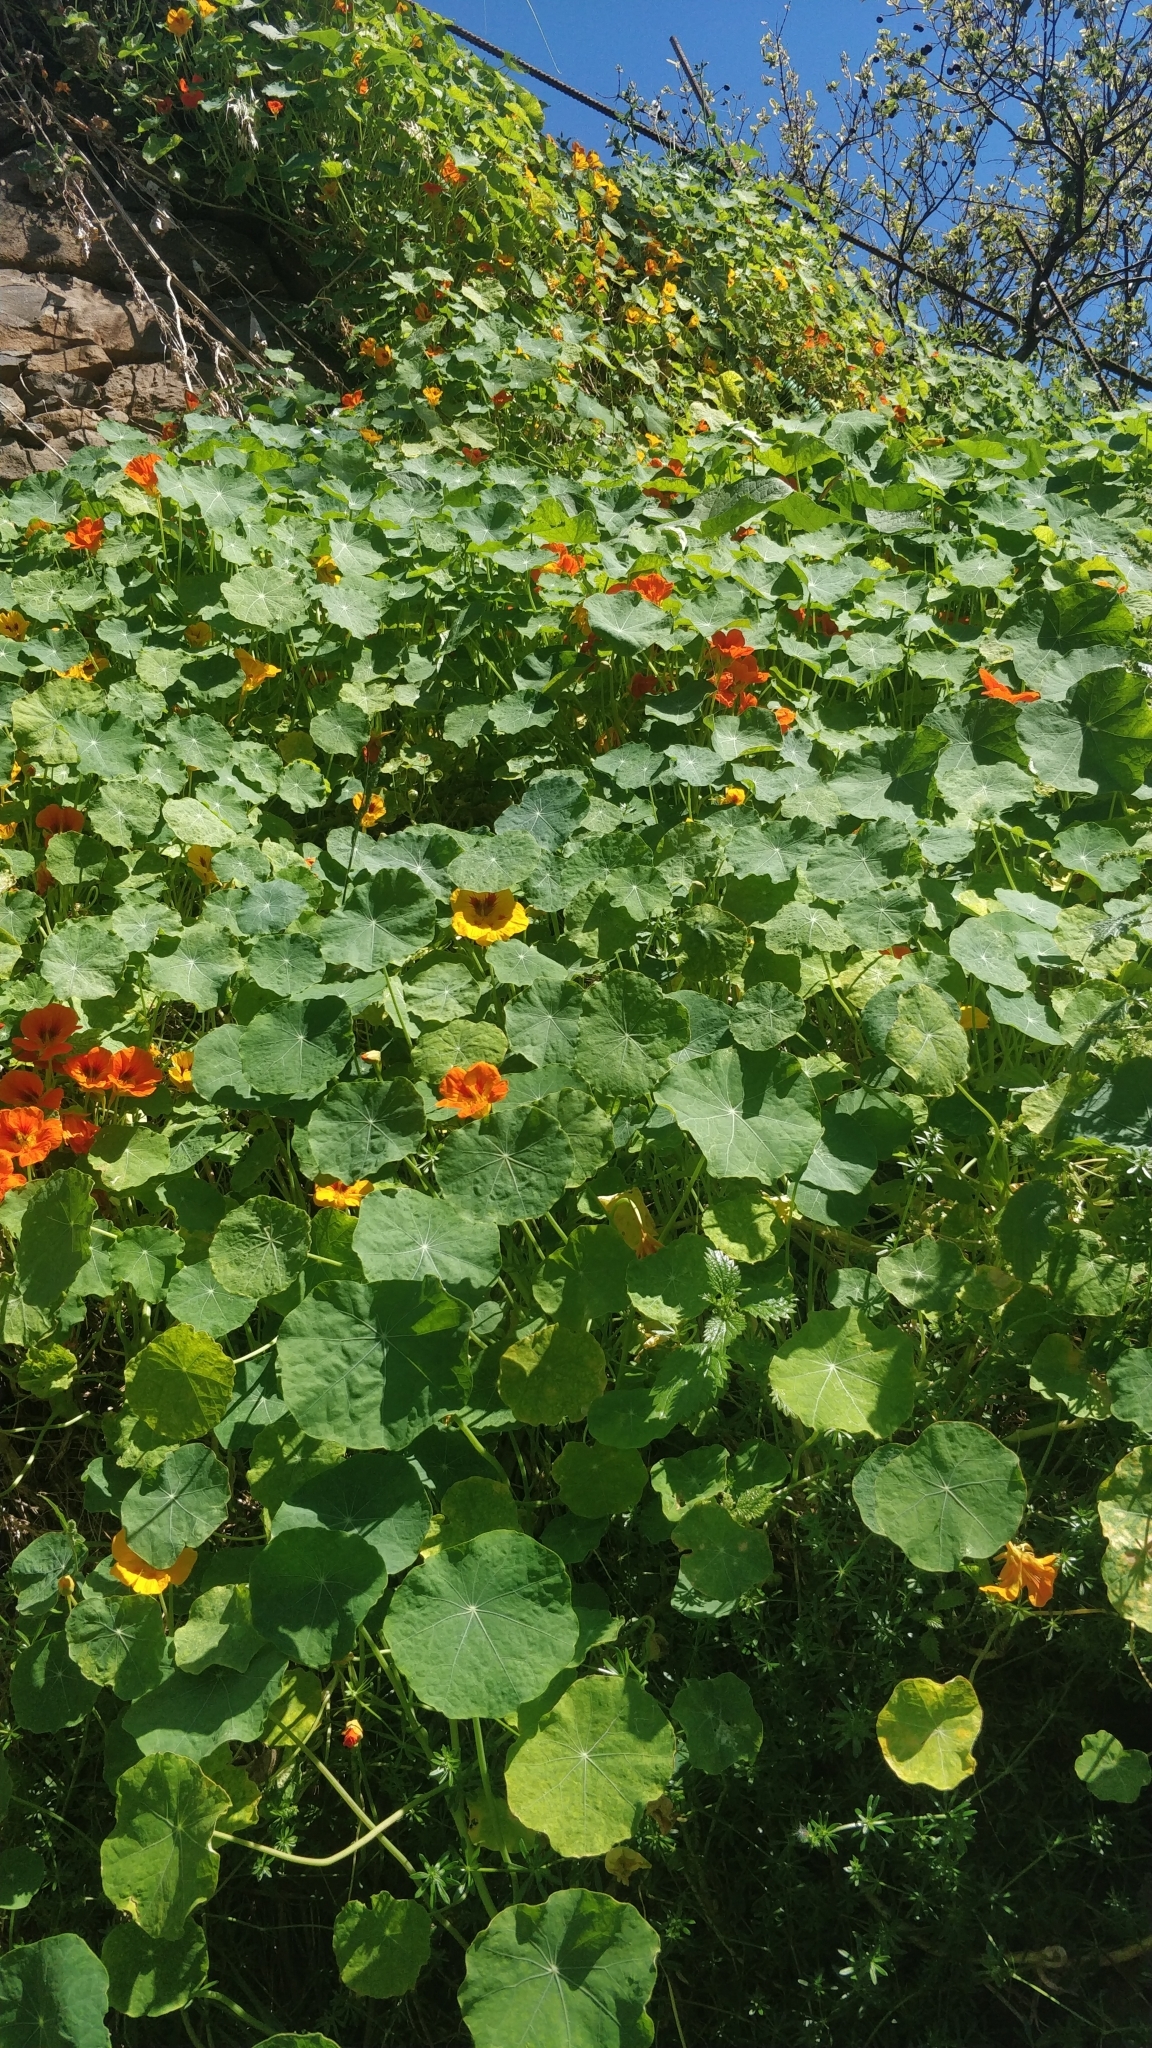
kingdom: Plantae
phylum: Tracheophyta
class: Magnoliopsida
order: Brassicales
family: Tropaeolaceae
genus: Tropaeolum
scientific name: Tropaeolum majus
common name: Nasturtium
